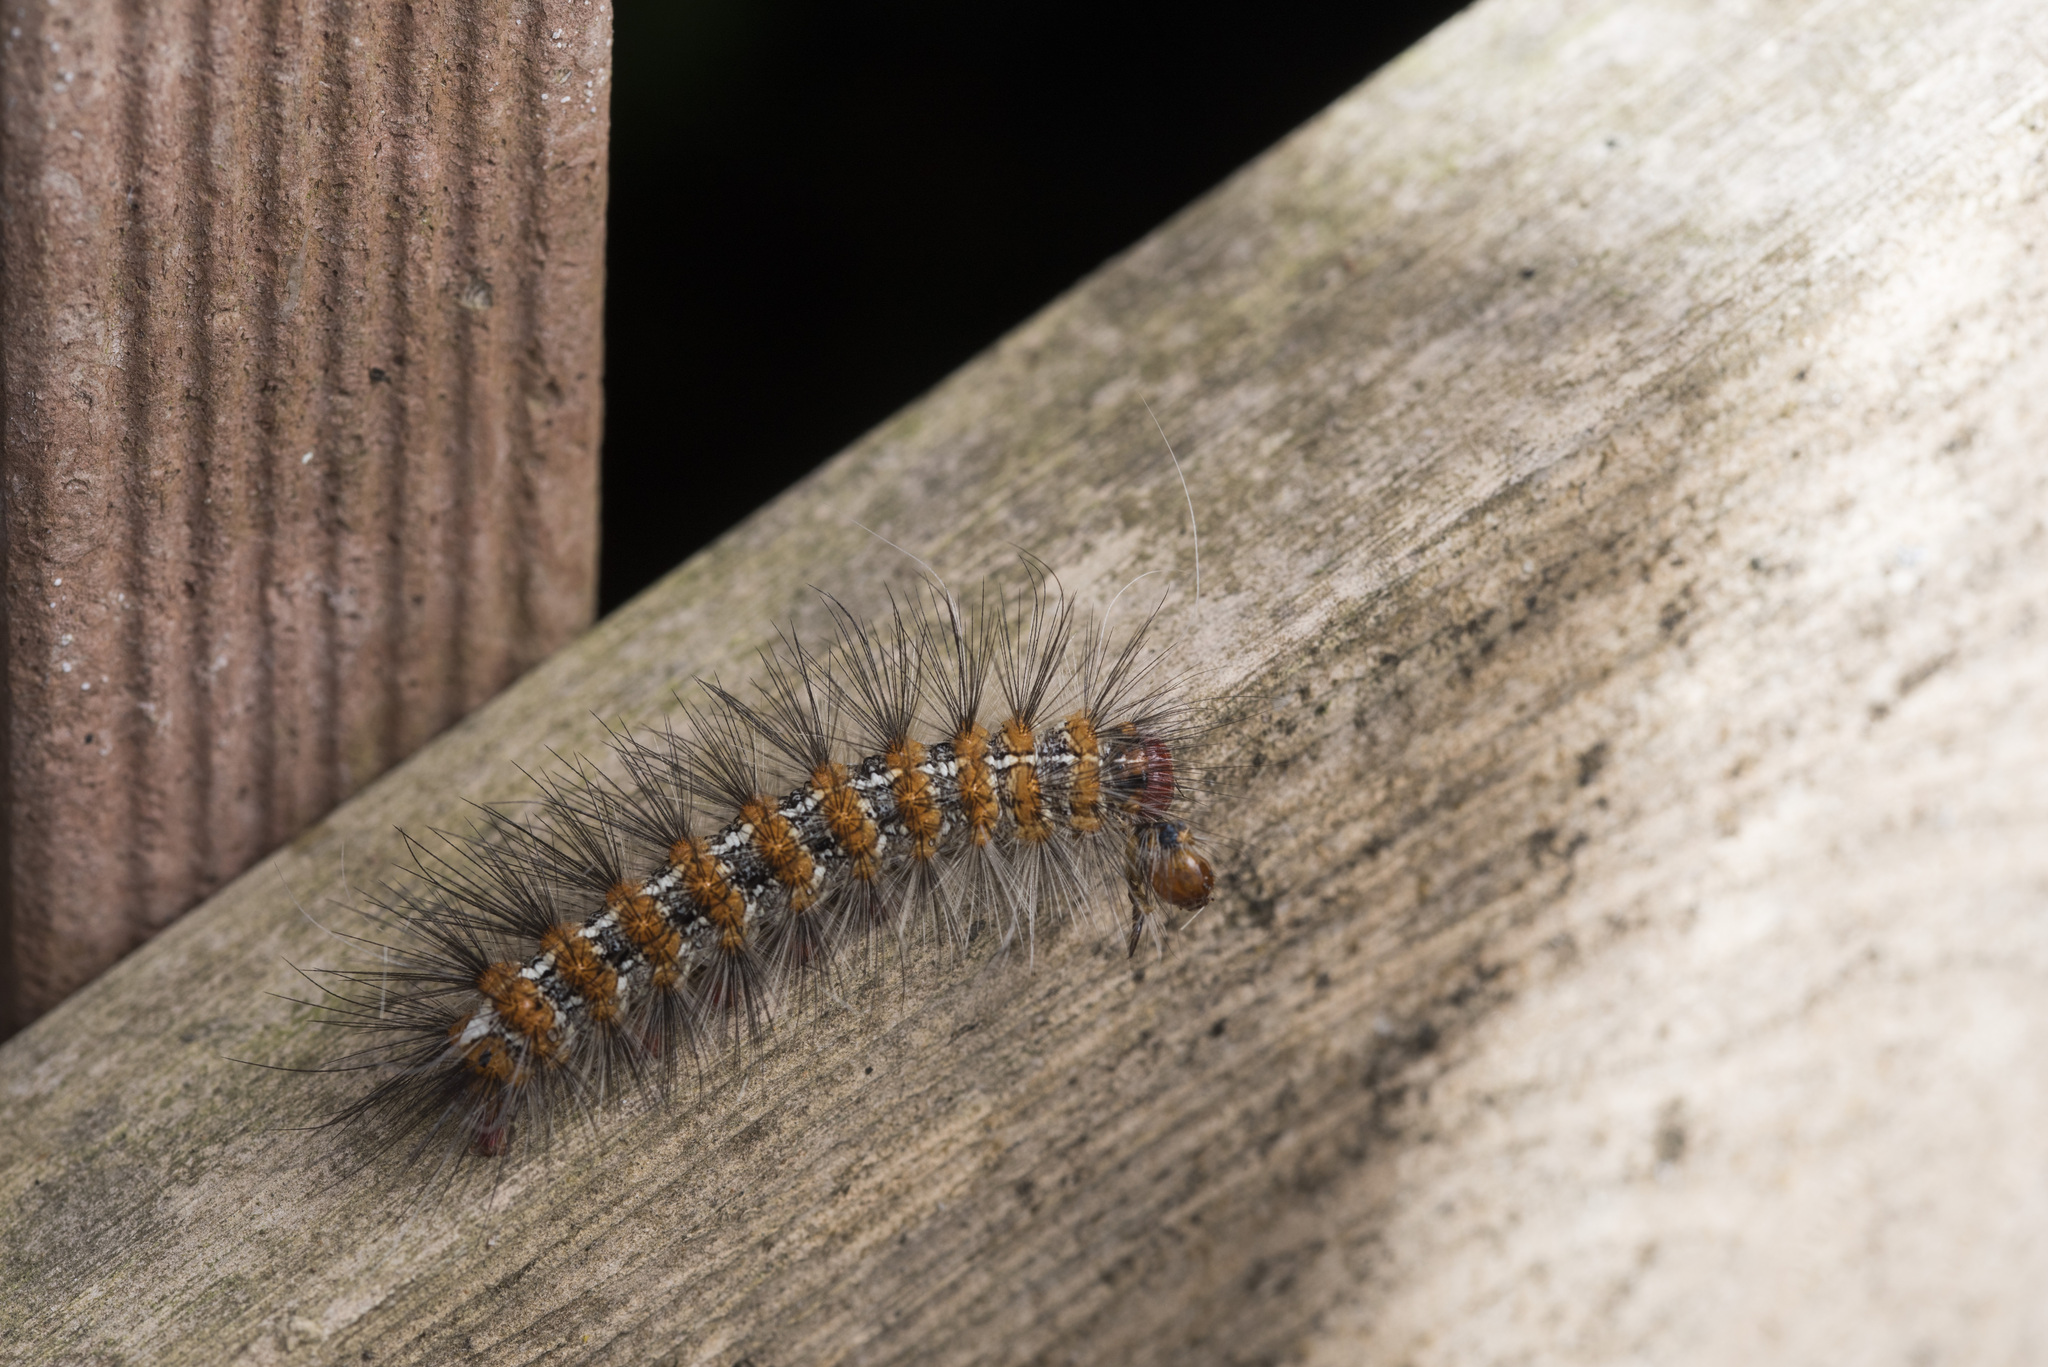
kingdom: Animalia
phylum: Arthropoda
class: Insecta
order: Lepidoptera
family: Erebidae
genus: Lemyra
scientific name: Lemyra imparilis
